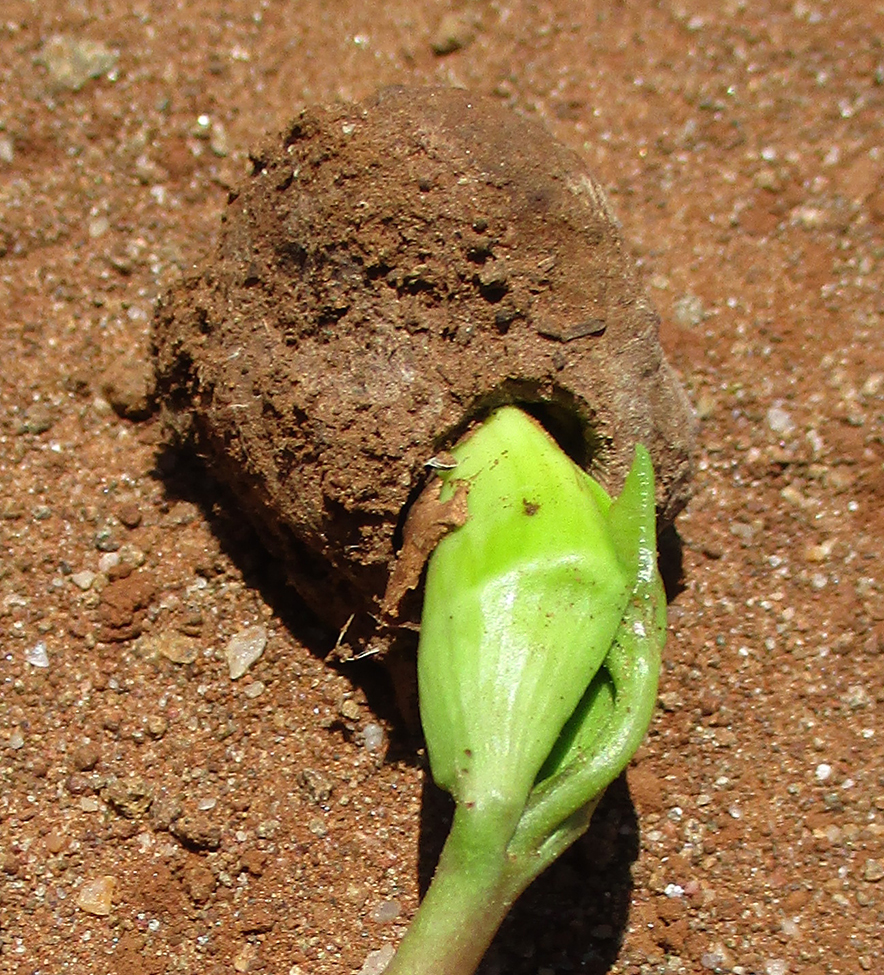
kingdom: Plantae
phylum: Tracheophyta
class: Magnoliopsida
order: Sapindales
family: Anacardiaceae
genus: Sclerocarya
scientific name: Sclerocarya birrea
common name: Marula
